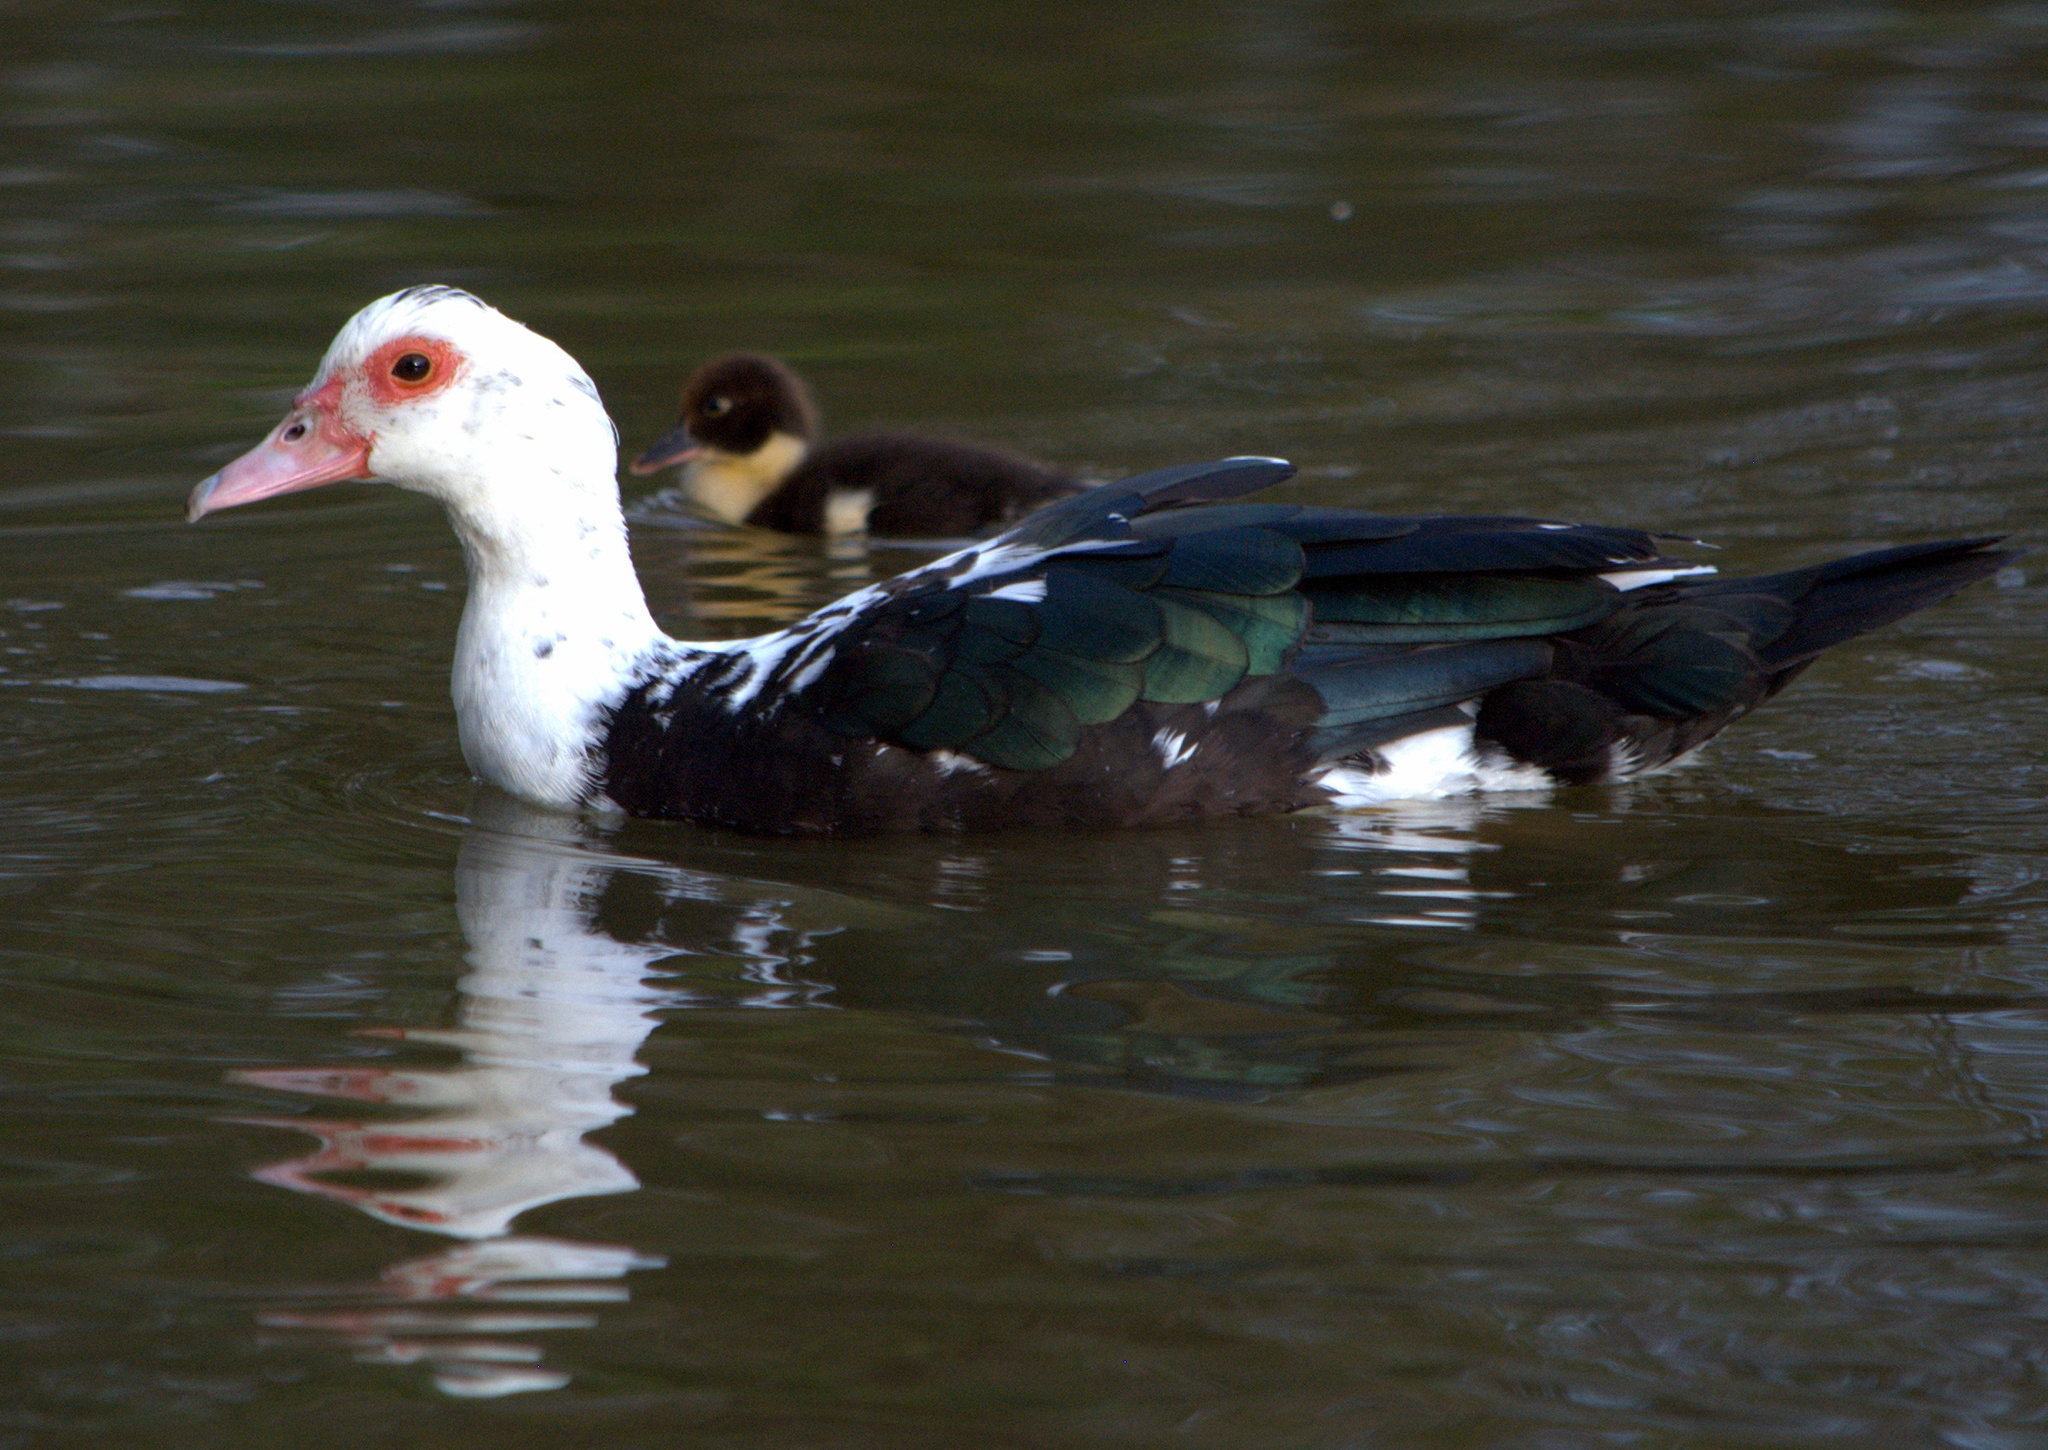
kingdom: Animalia
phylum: Chordata
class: Aves
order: Anseriformes
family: Anatidae
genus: Cairina
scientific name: Cairina moschata
